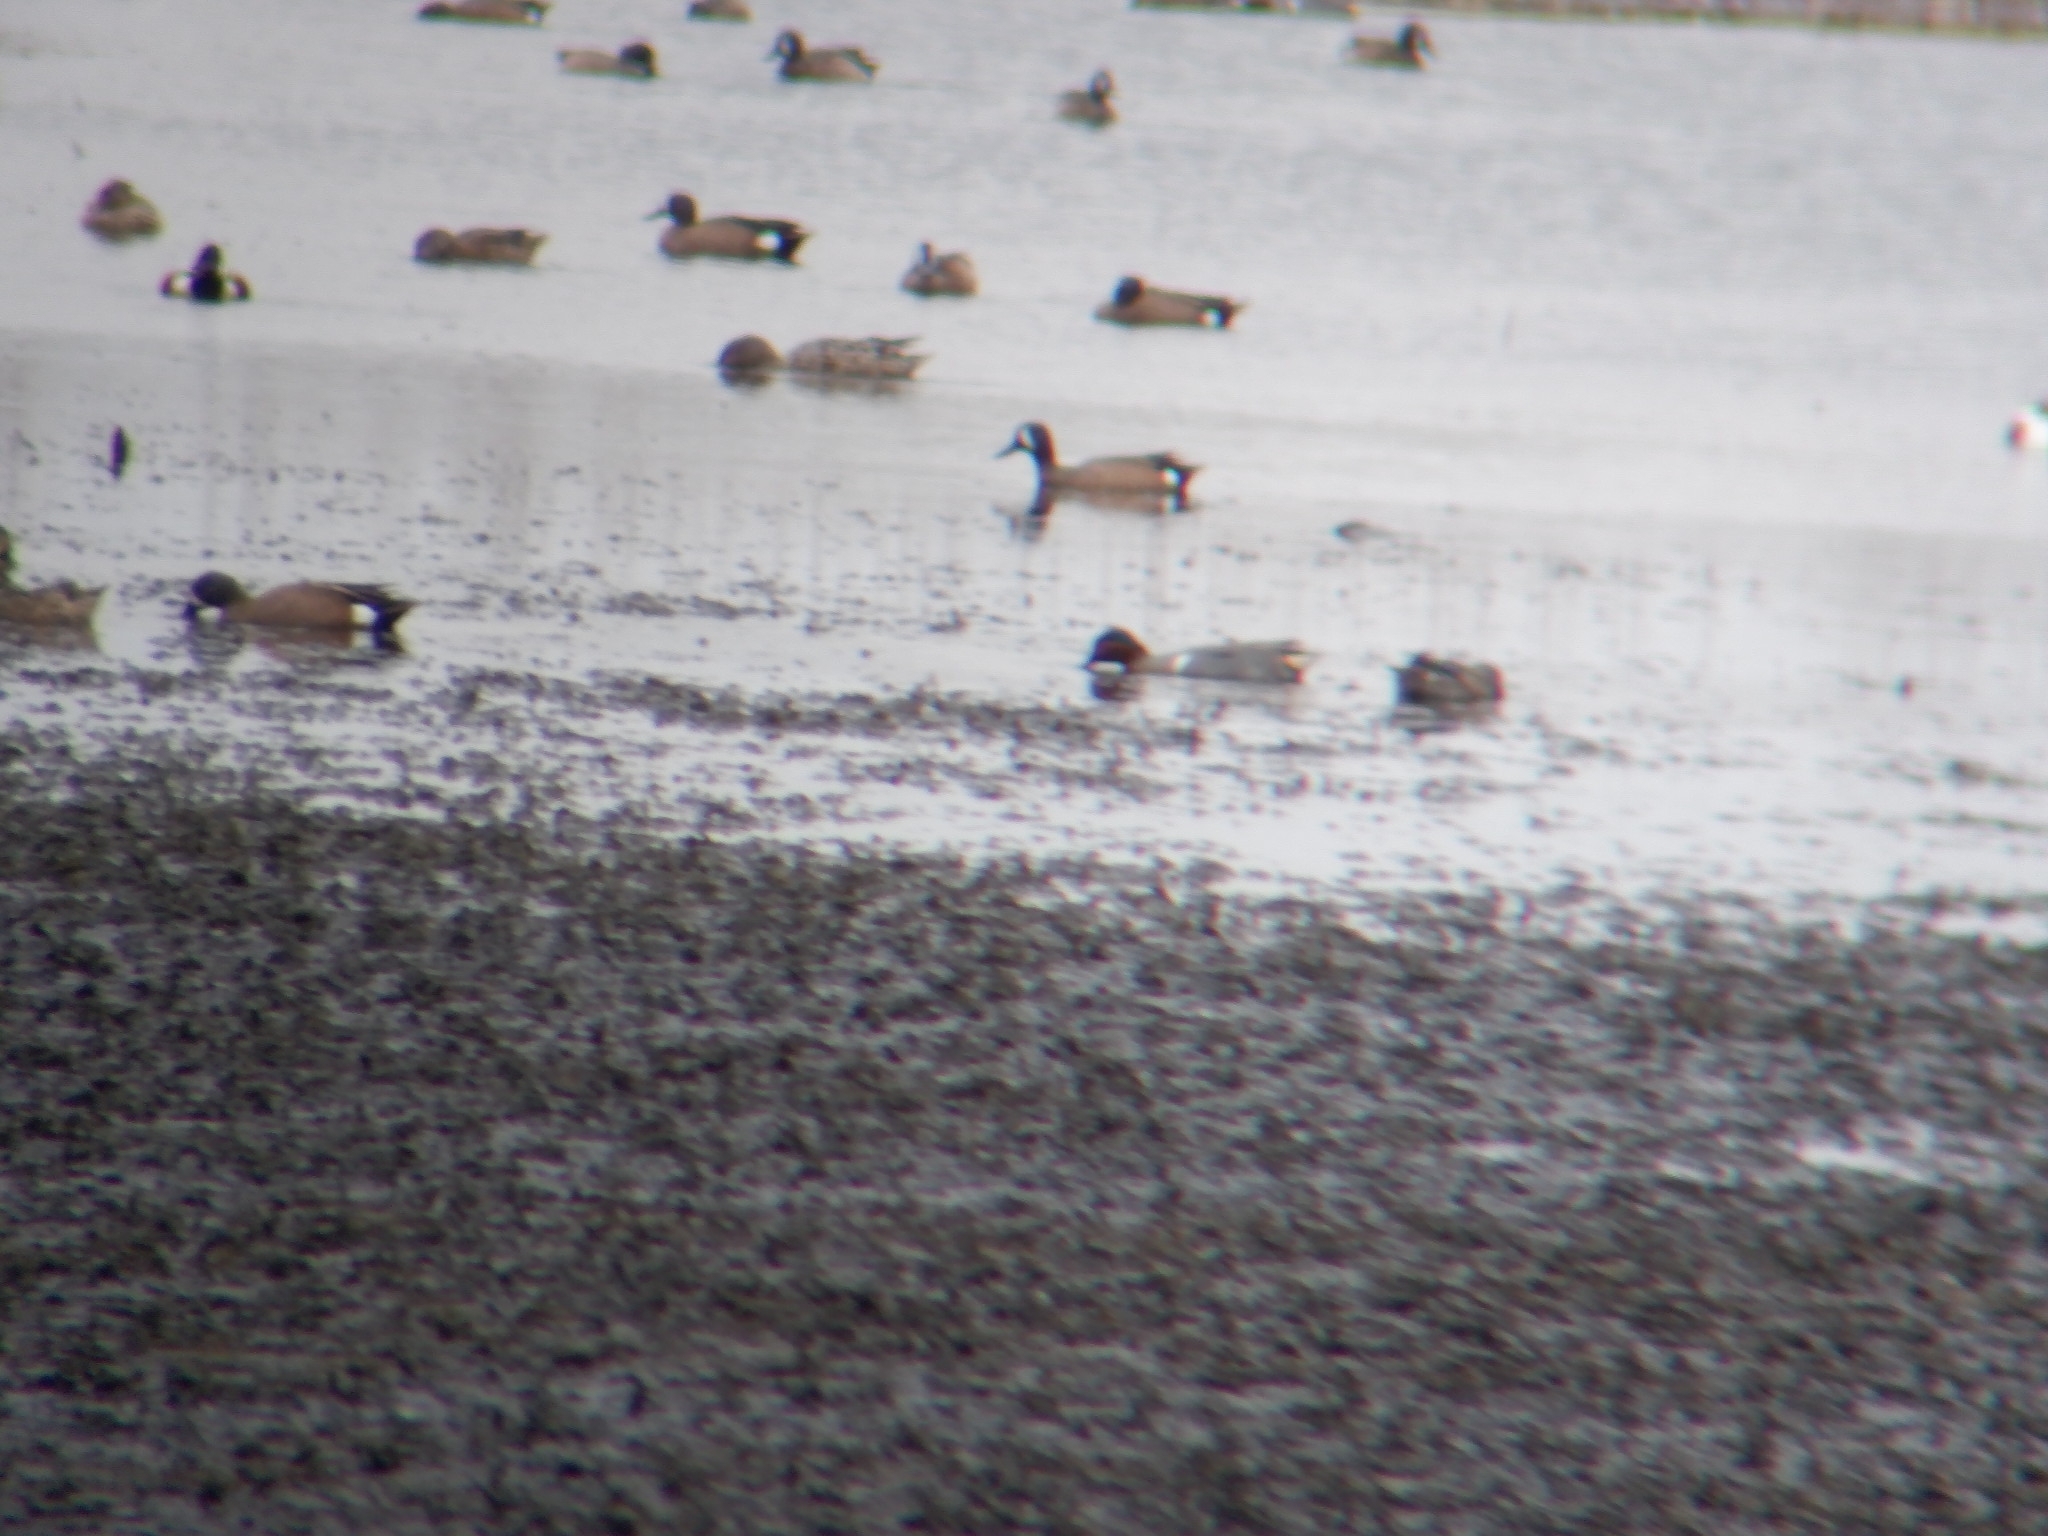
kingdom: Animalia
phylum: Chordata
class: Aves
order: Anseriformes
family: Anatidae
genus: Spatula
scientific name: Spatula discors
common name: Blue-winged teal
